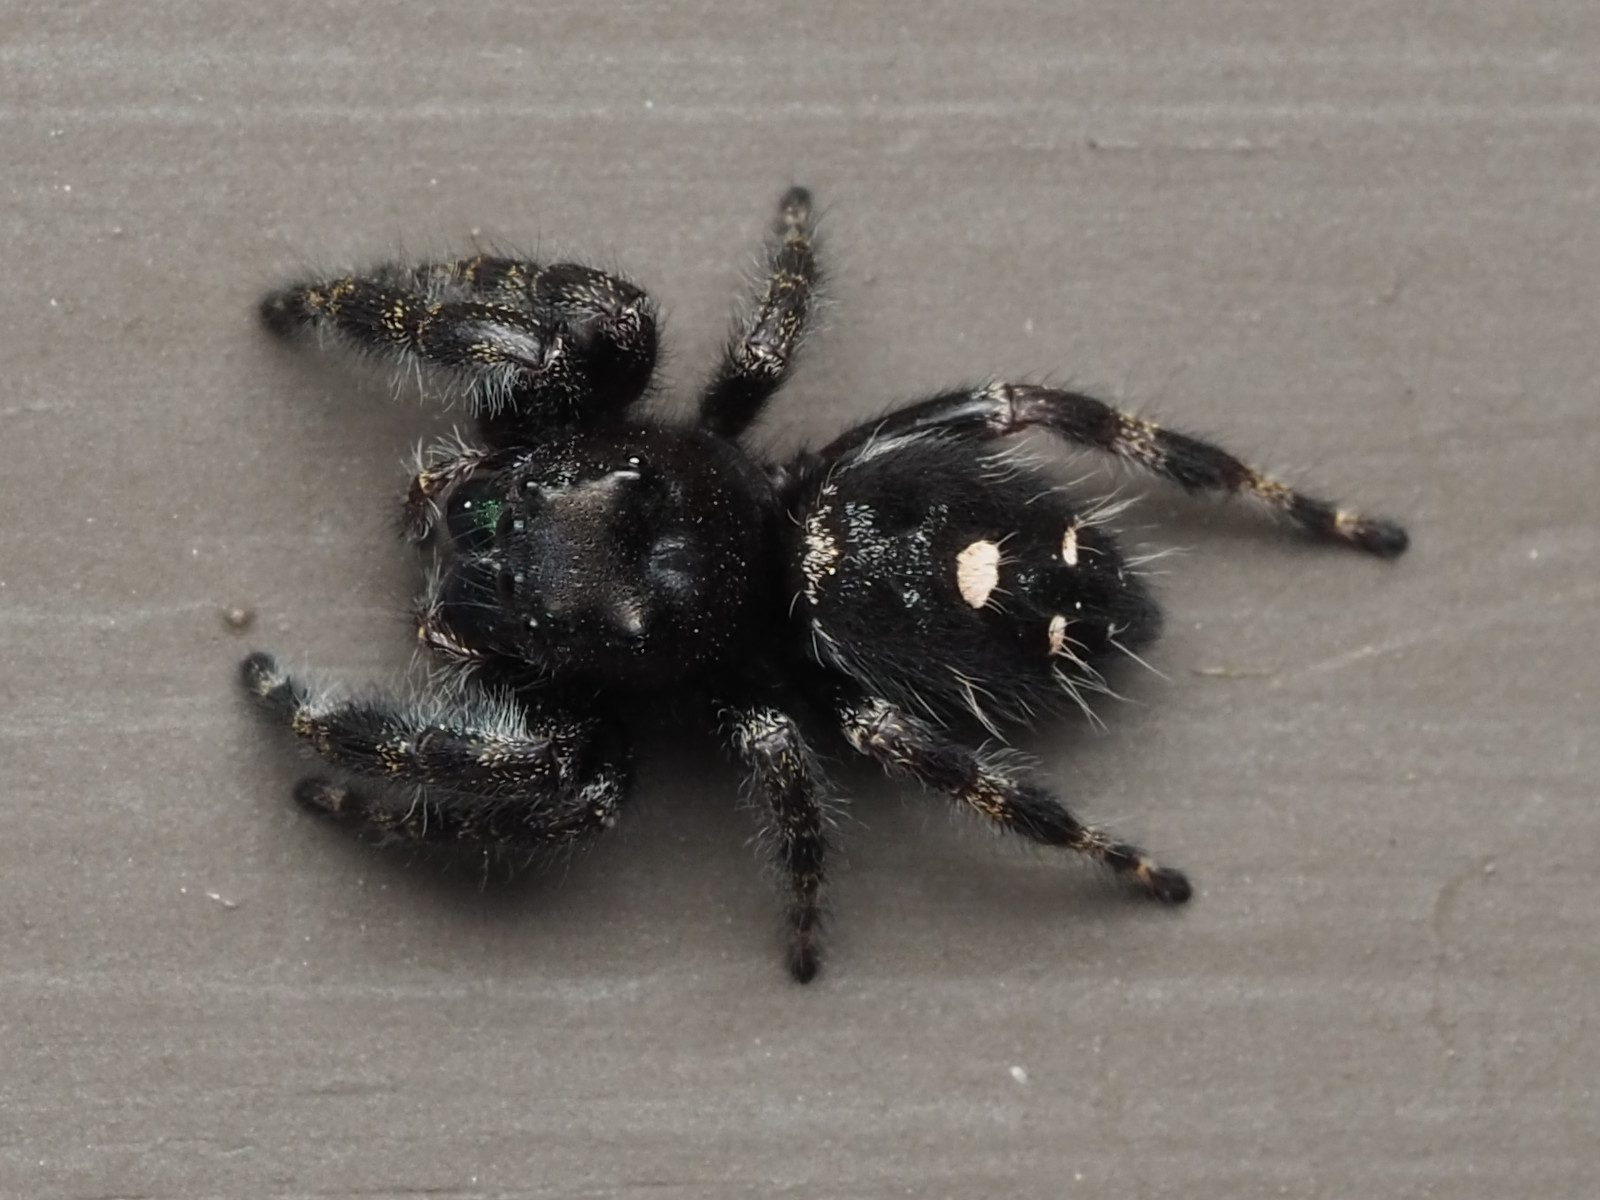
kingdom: Animalia
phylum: Arthropoda
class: Arachnida
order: Araneae
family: Salticidae
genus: Phidippus
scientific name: Phidippus audax
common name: Bold jumper
